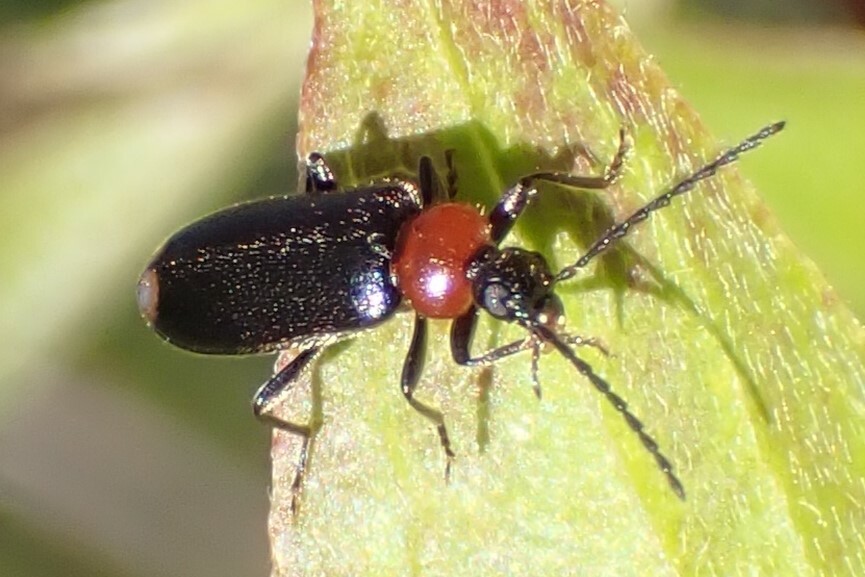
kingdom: Animalia
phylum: Arthropoda
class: Insecta
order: Coleoptera
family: Pyrochroidae
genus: Pedilus
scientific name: Pedilus terminalis
